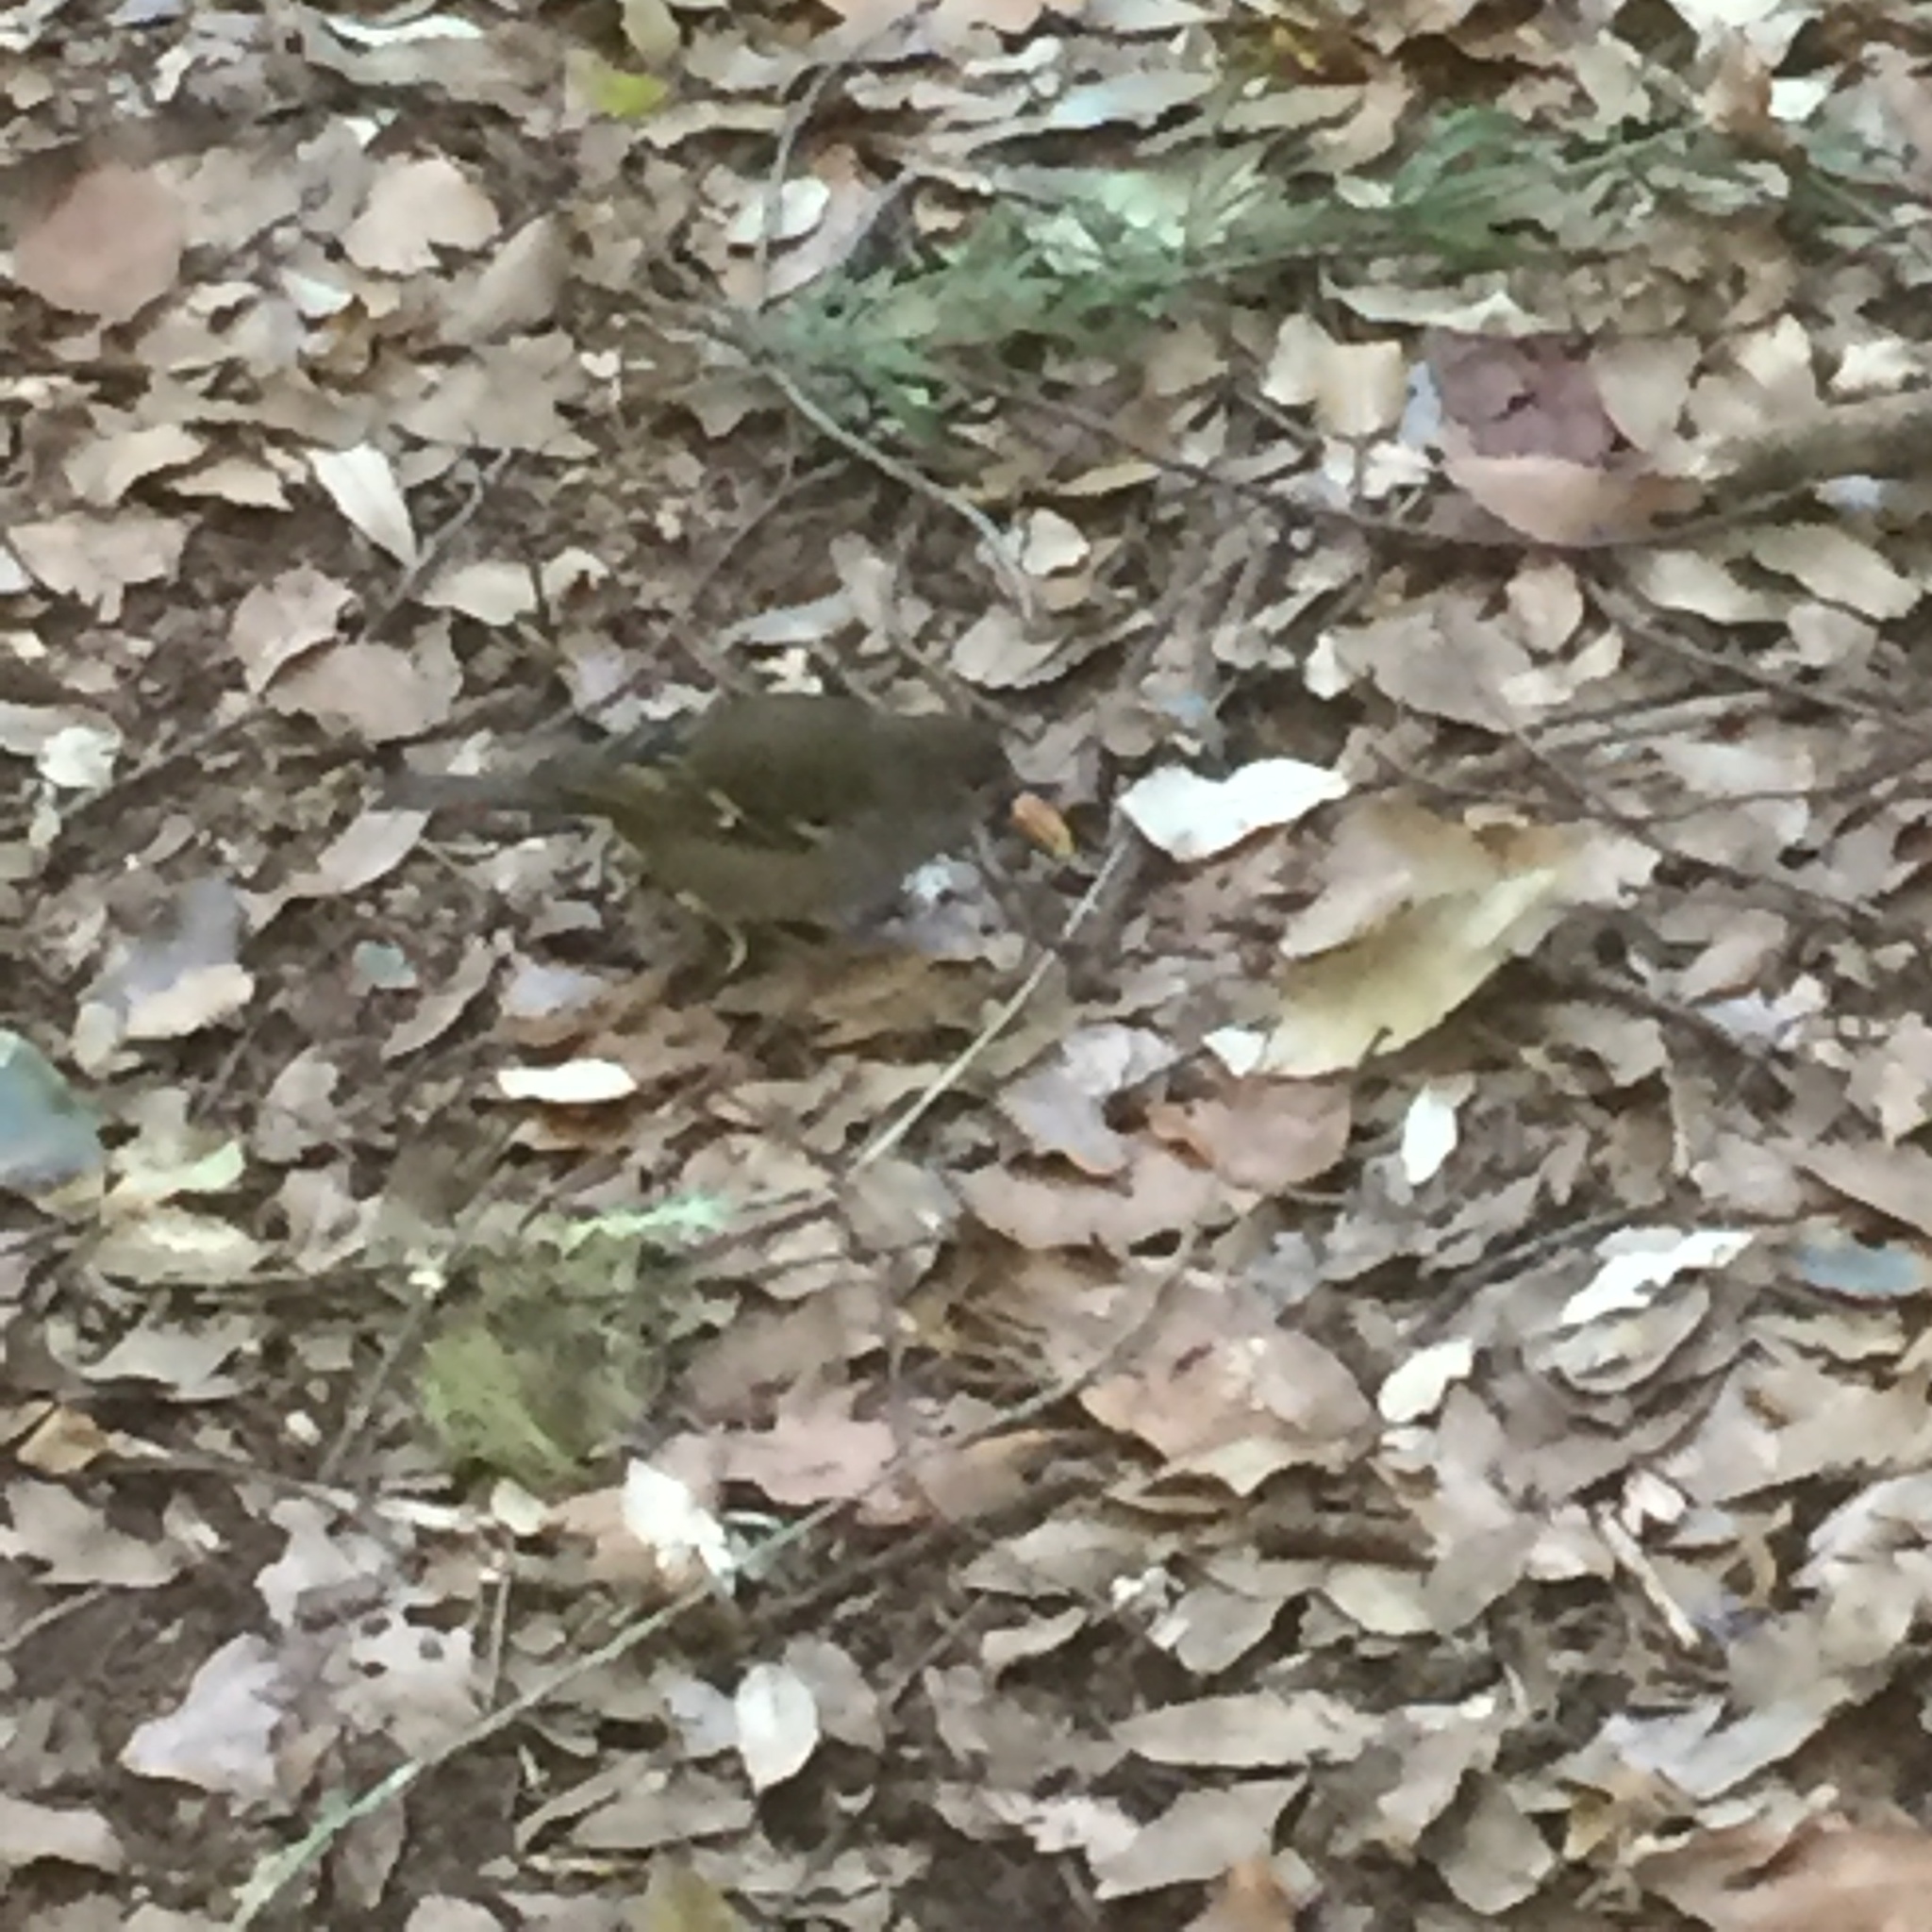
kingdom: Animalia
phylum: Chordata
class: Aves
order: Passeriformes
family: Fringillidae
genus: Fringilla
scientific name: Fringilla maderensis
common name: Madeira chaffinch
